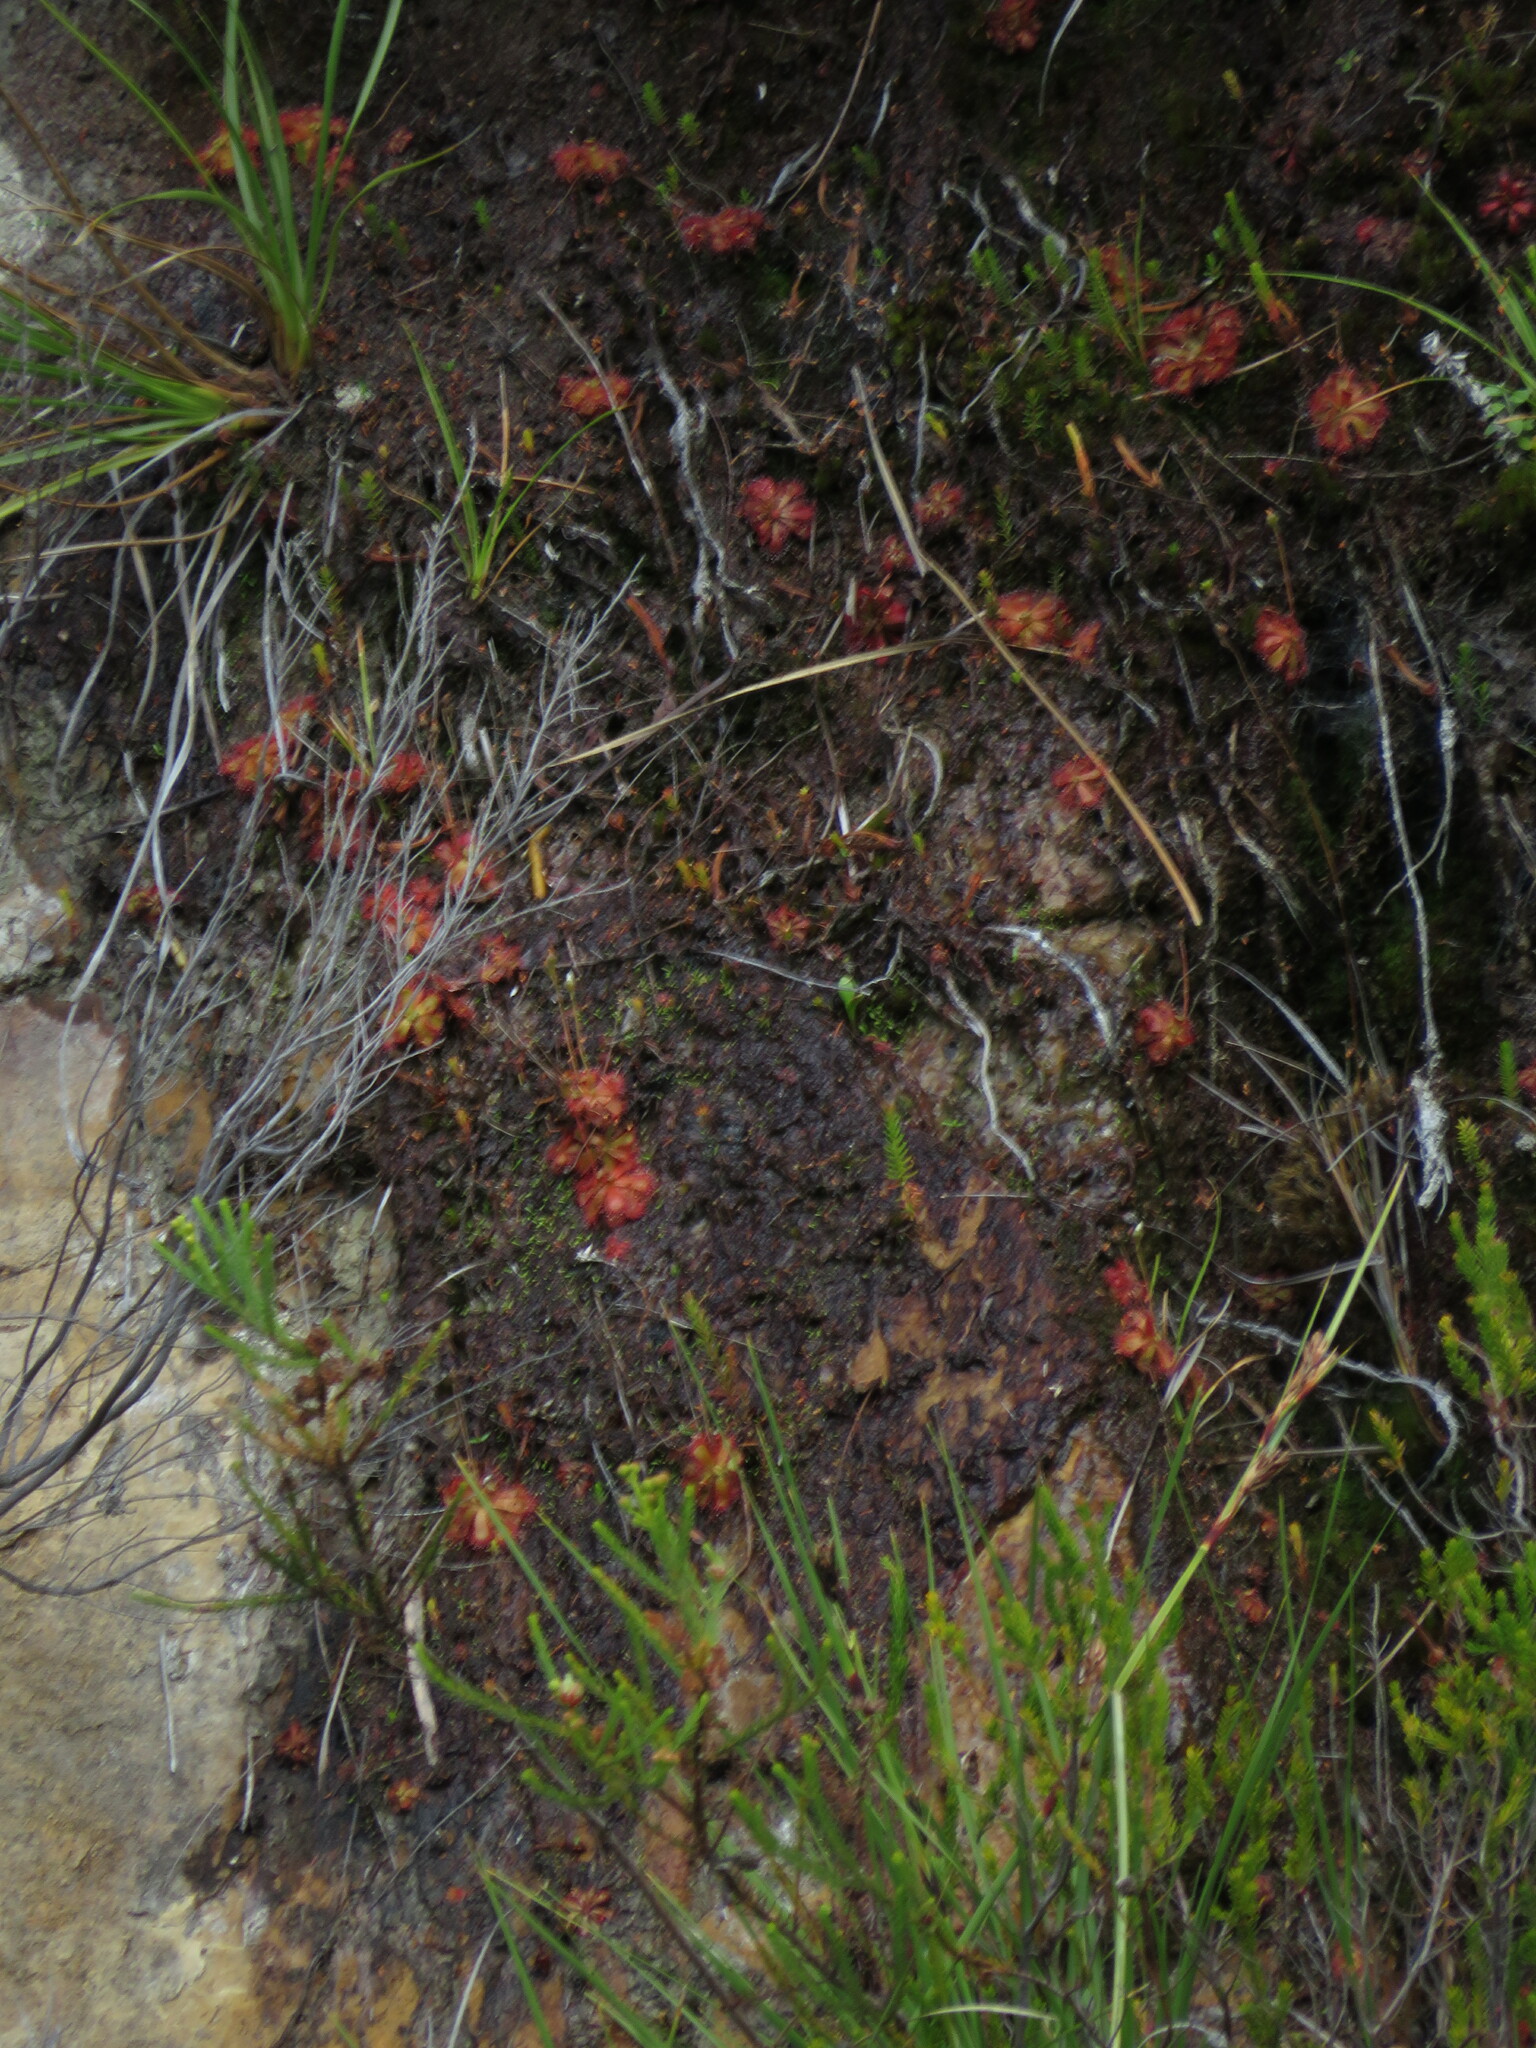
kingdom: Plantae
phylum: Tracheophyta
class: Magnoliopsida
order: Caryophyllales
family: Droseraceae
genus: Drosera
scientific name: Drosera aliciae
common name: Alice sundew
